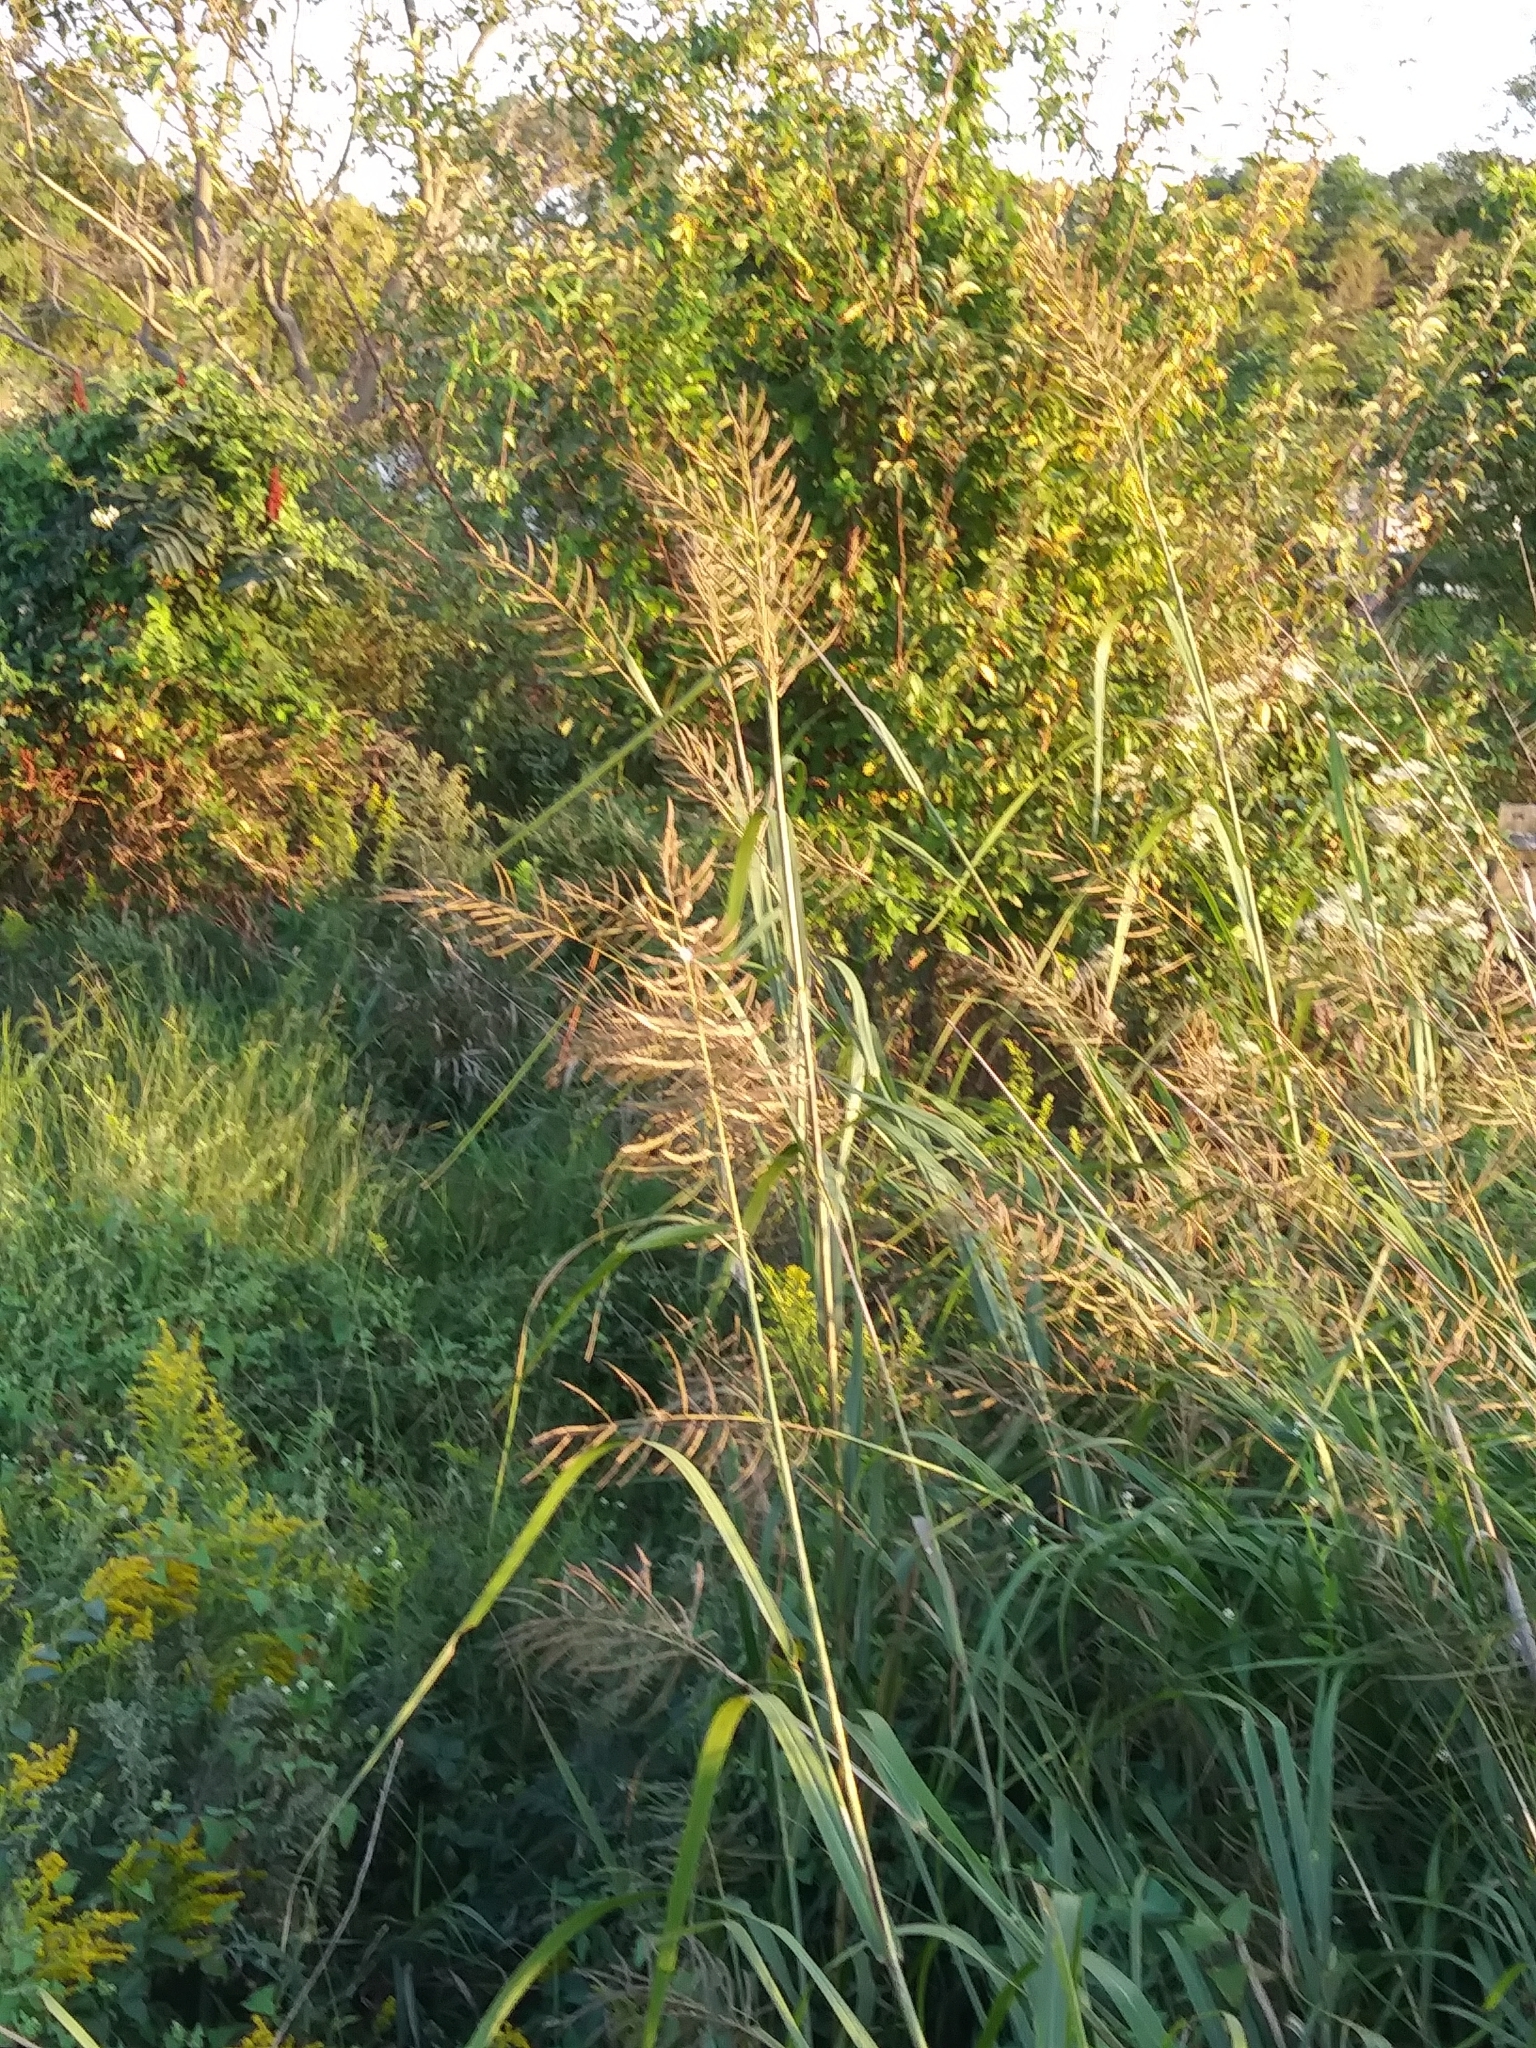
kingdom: Plantae
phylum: Tracheophyta
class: Liliopsida
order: Poales
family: Poaceae
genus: Sporobolus
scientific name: Sporobolus cynosuroides
